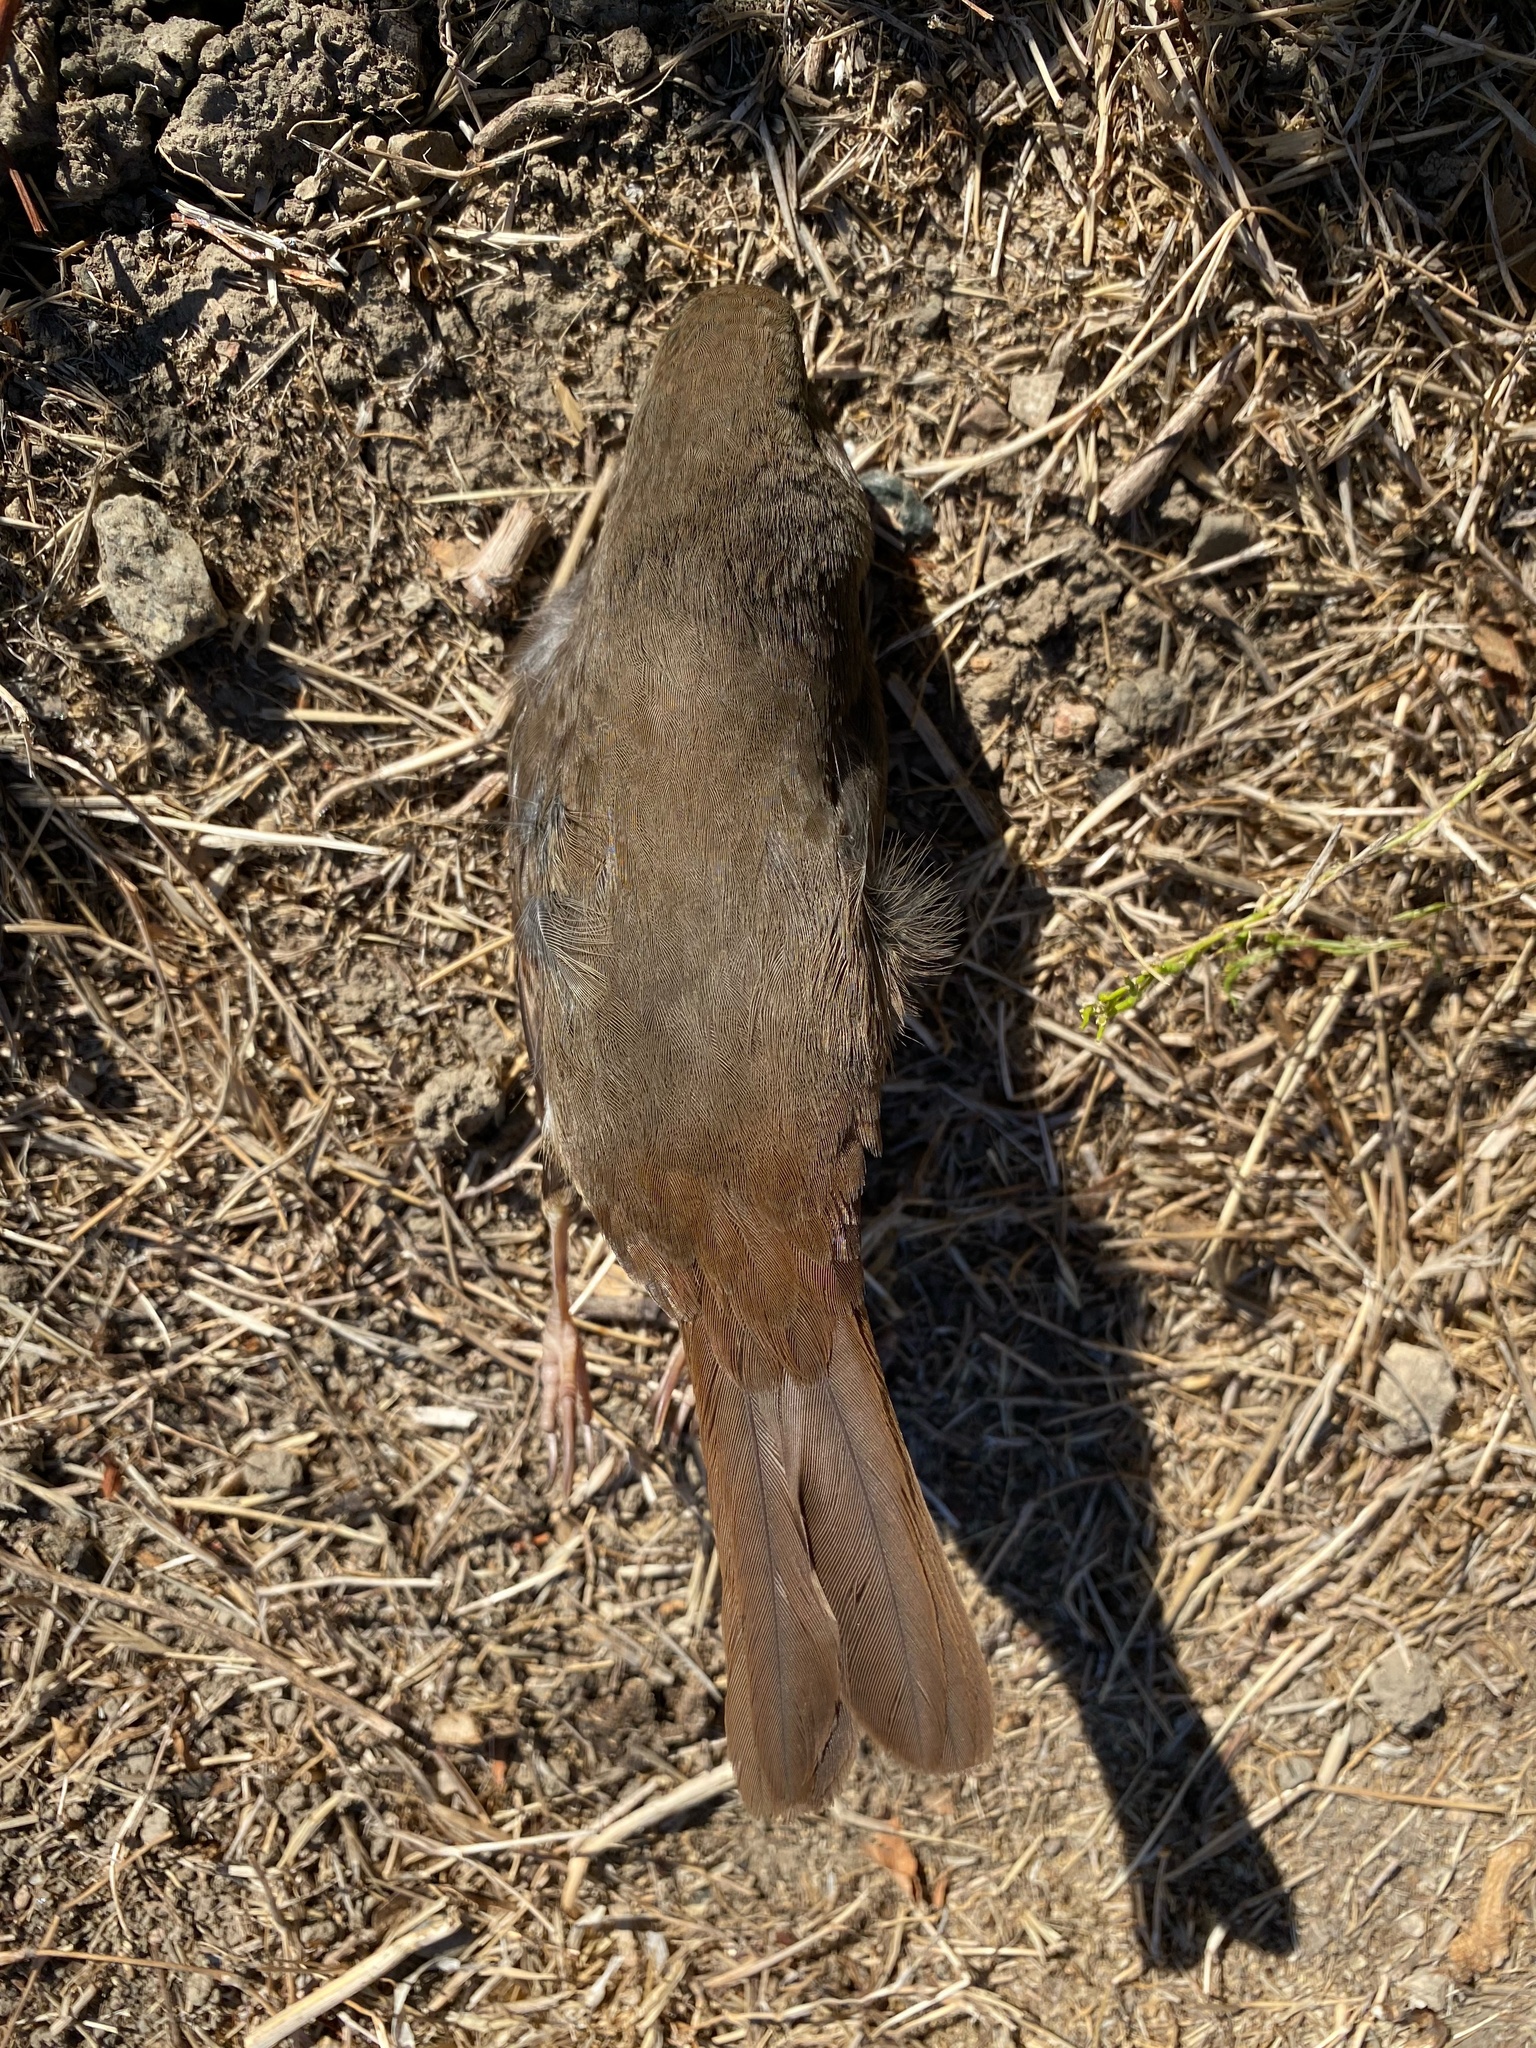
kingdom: Animalia
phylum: Chordata
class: Aves
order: Passeriformes
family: Passerellidae
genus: Passerella
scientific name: Passerella iliaca
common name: Fox sparrow
